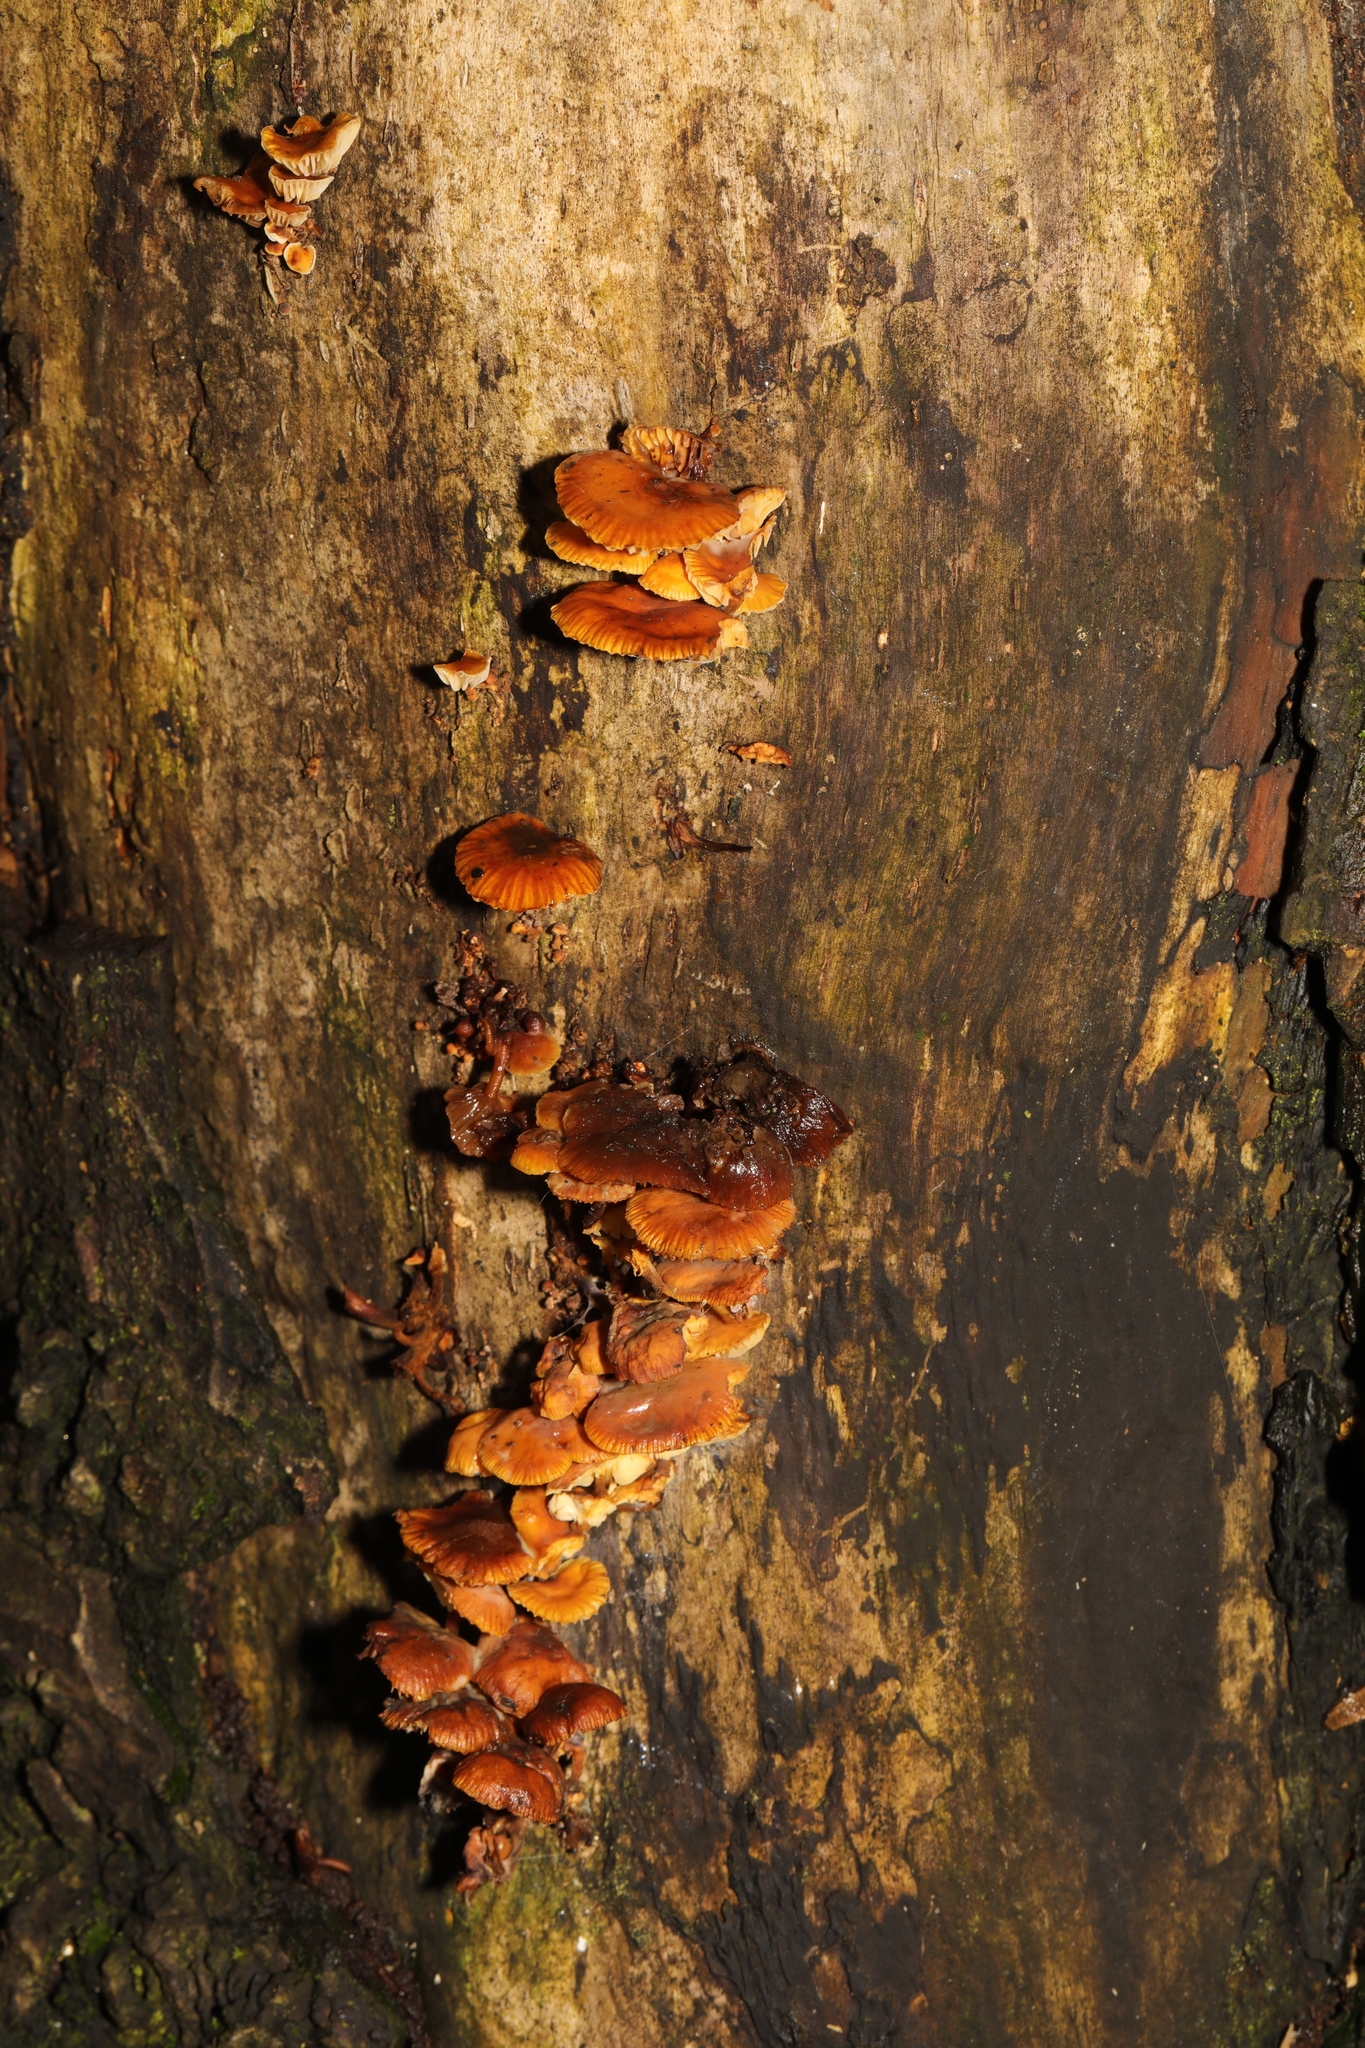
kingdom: Fungi
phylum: Basidiomycota
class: Agaricomycetes
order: Agaricales
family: Physalacriaceae
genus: Flammulina
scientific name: Flammulina
